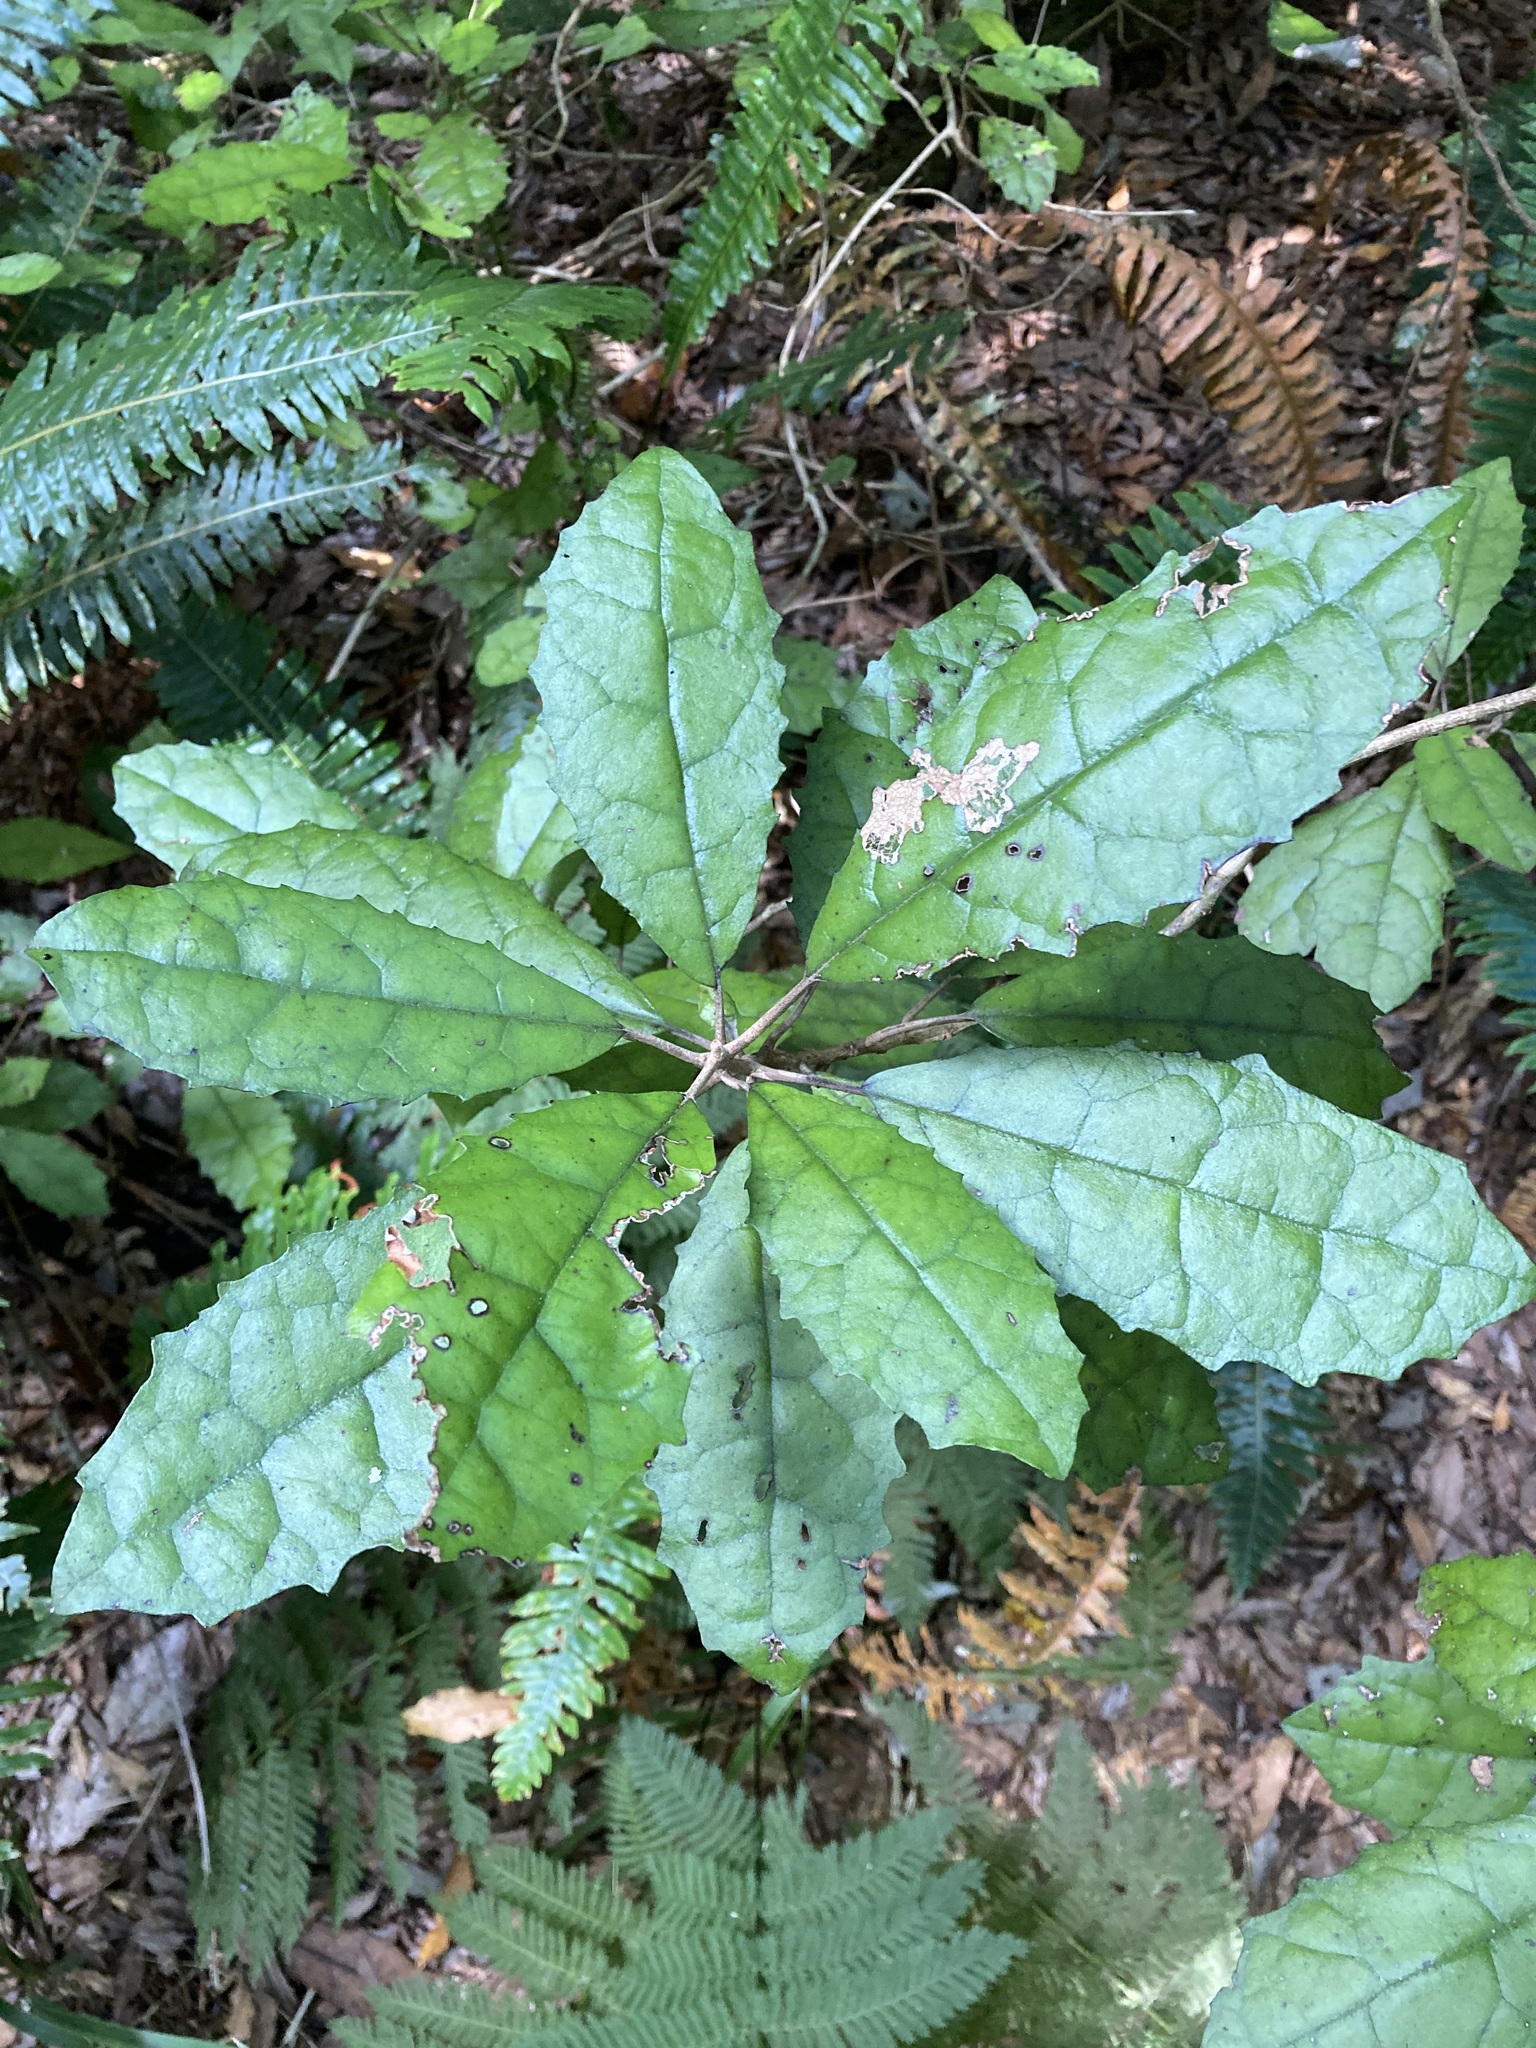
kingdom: Plantae
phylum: Tracheophyta
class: Magnoliopsida
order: Asterales
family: Asteraceae
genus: Olearia
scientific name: Olearia rani
